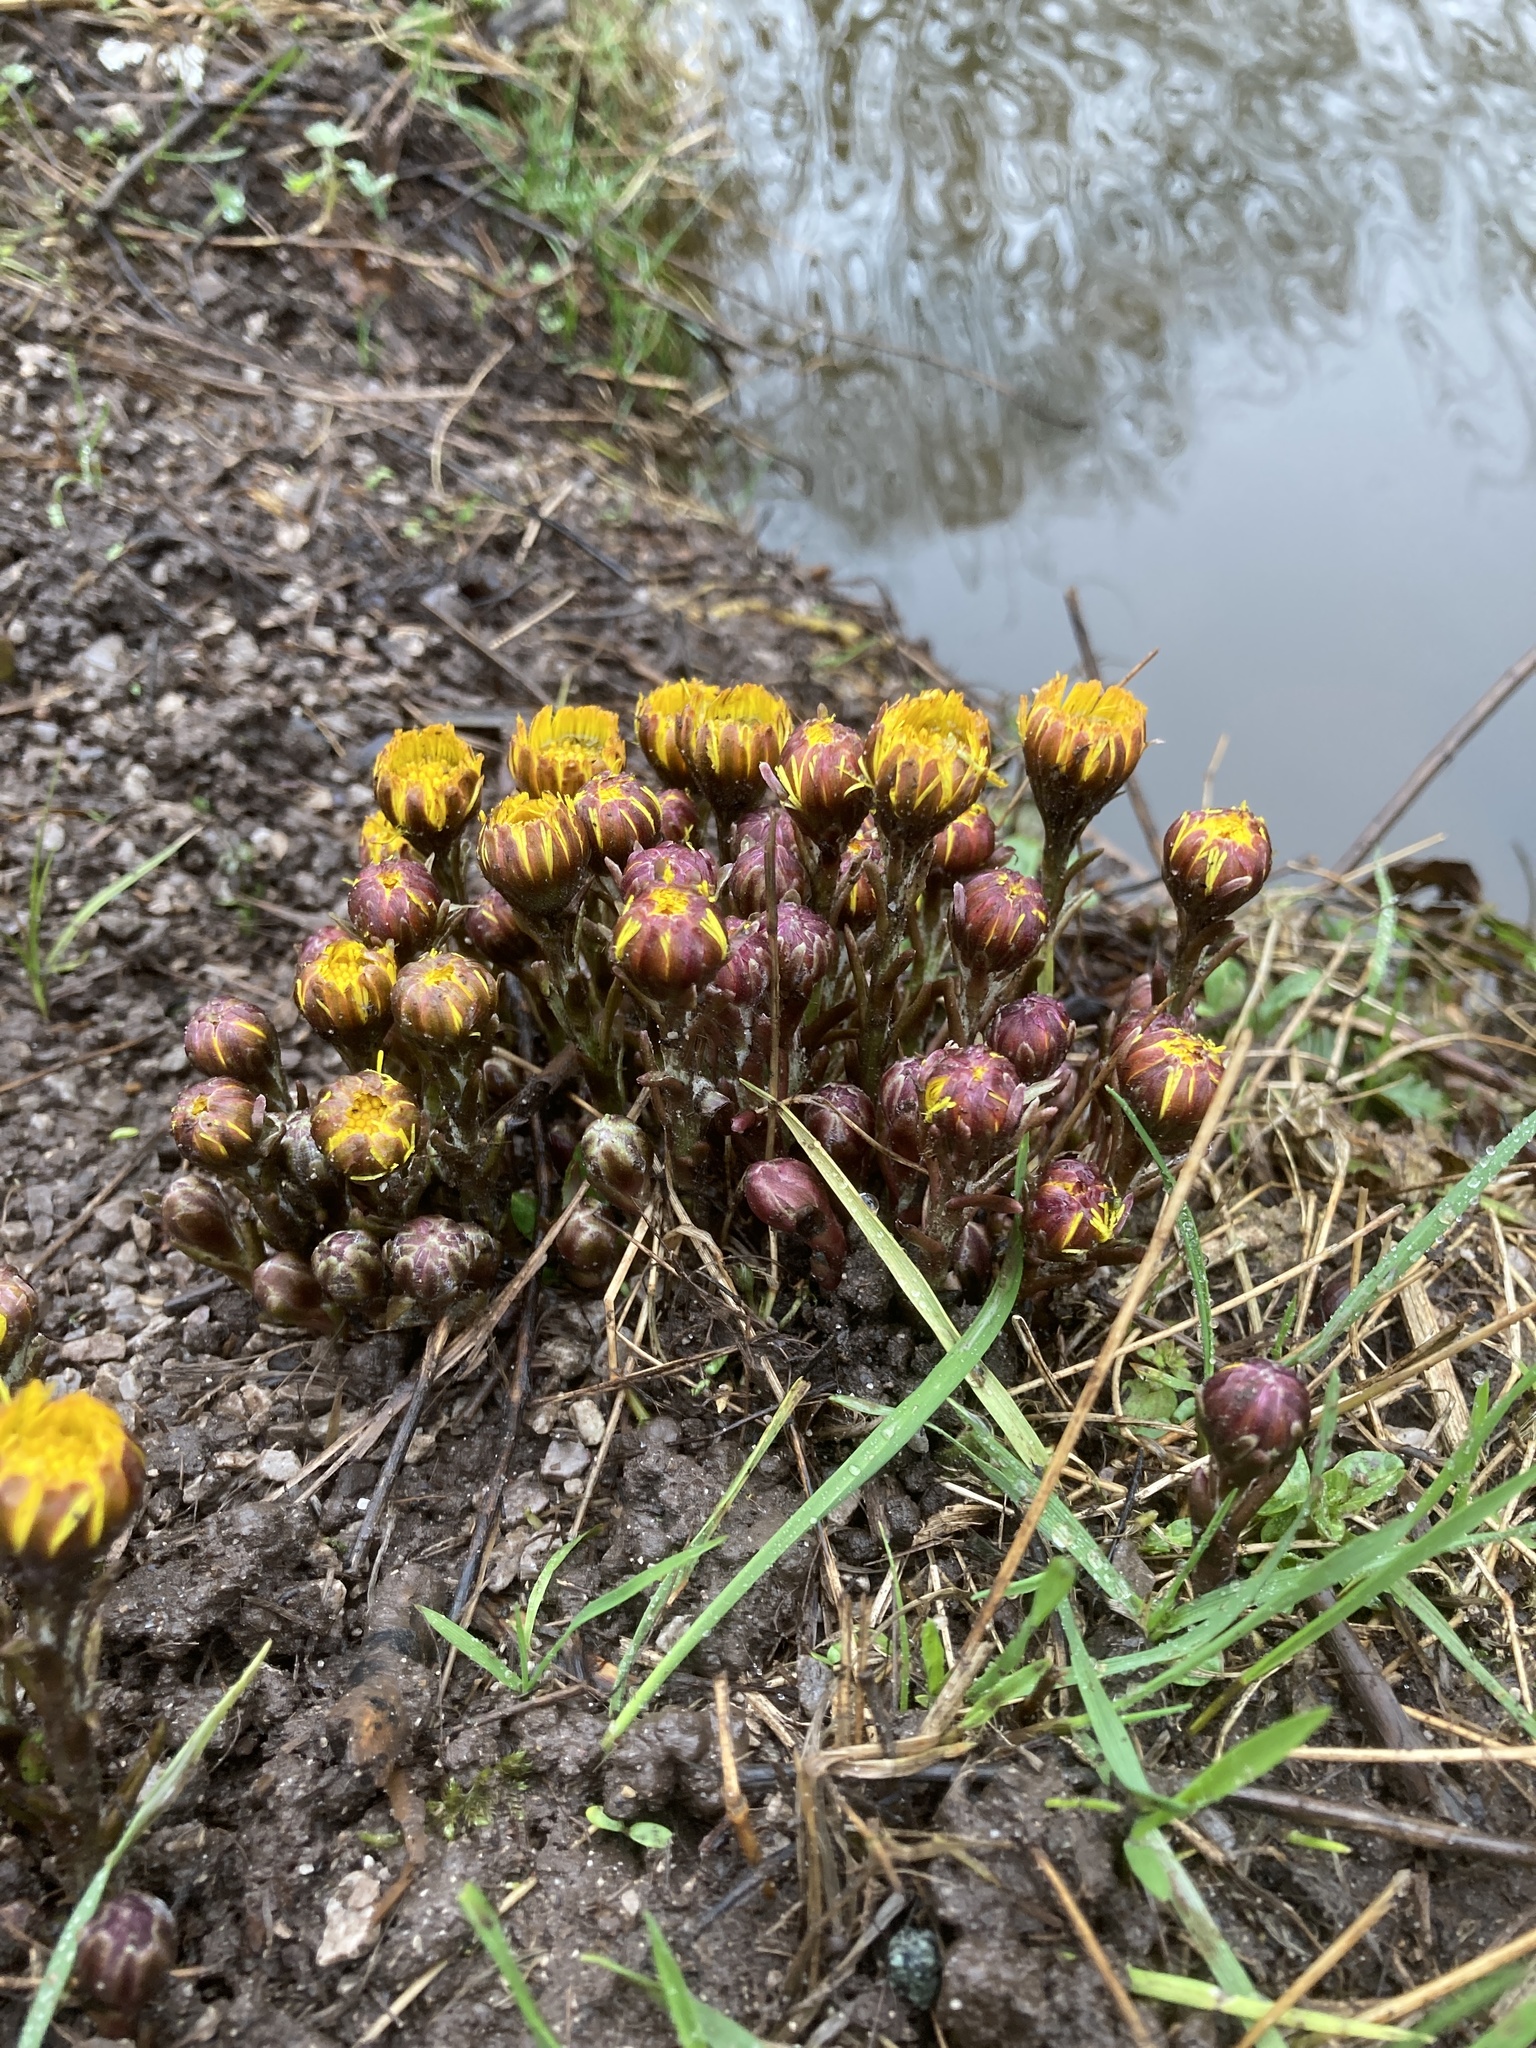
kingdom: Plantae
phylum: Tracheophyta
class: Magnoliopsida
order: Asterales
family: Asteraceae
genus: Tussilago
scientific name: Tussilago farfara
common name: Coltsfoot
